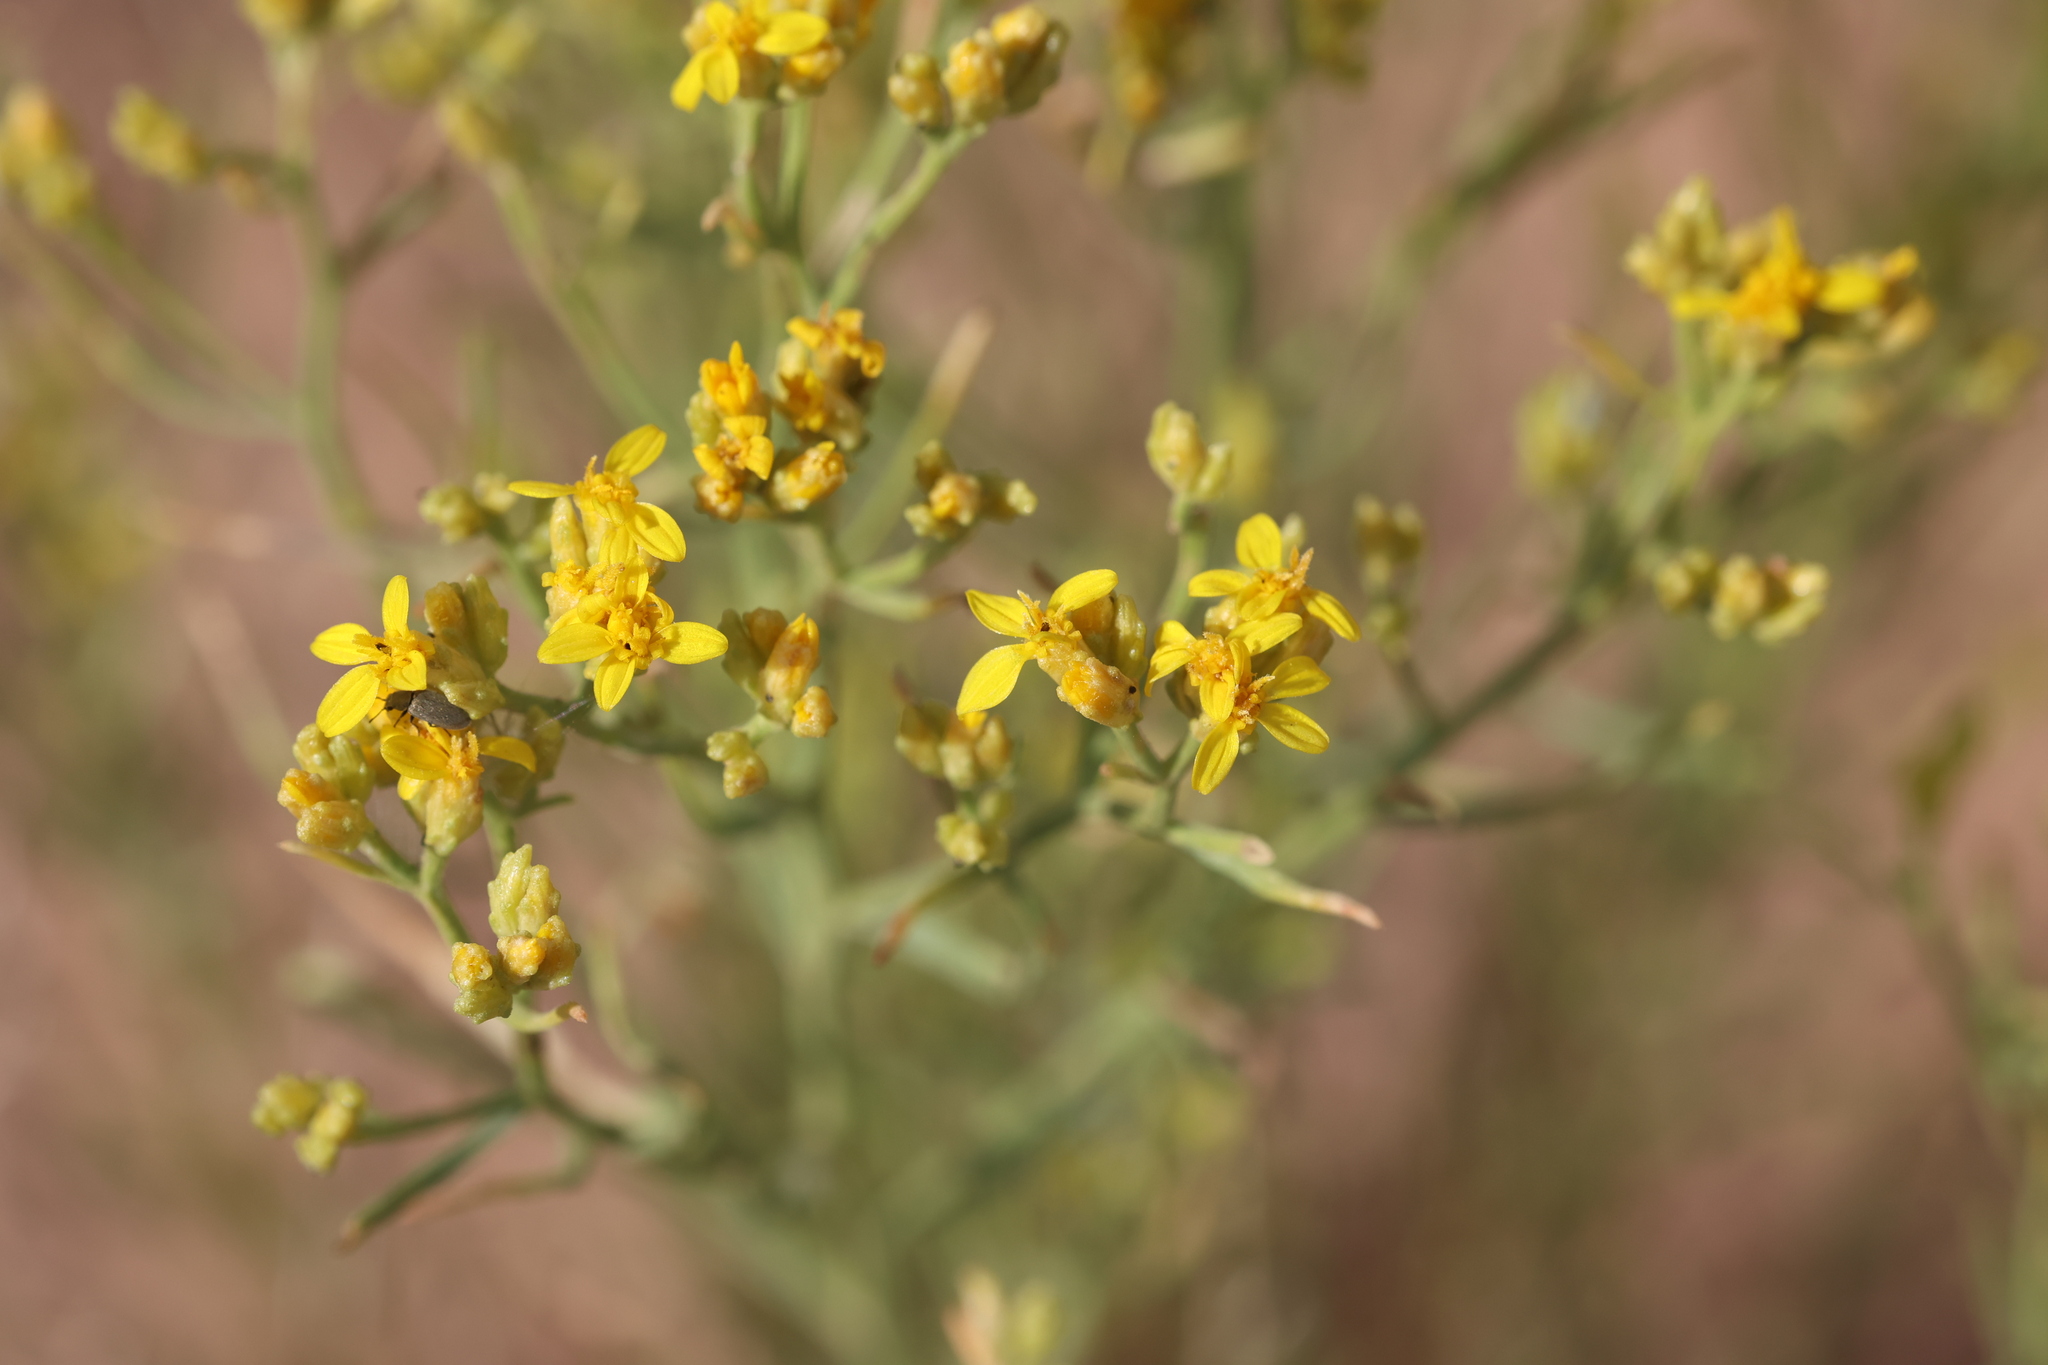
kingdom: Plantae
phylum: Tracheophyta
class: Magnoliopsida
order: Asterales
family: Asteraceae
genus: Gutierrezia
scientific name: Gutierrezia sarothrae
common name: Broom snakeweed
